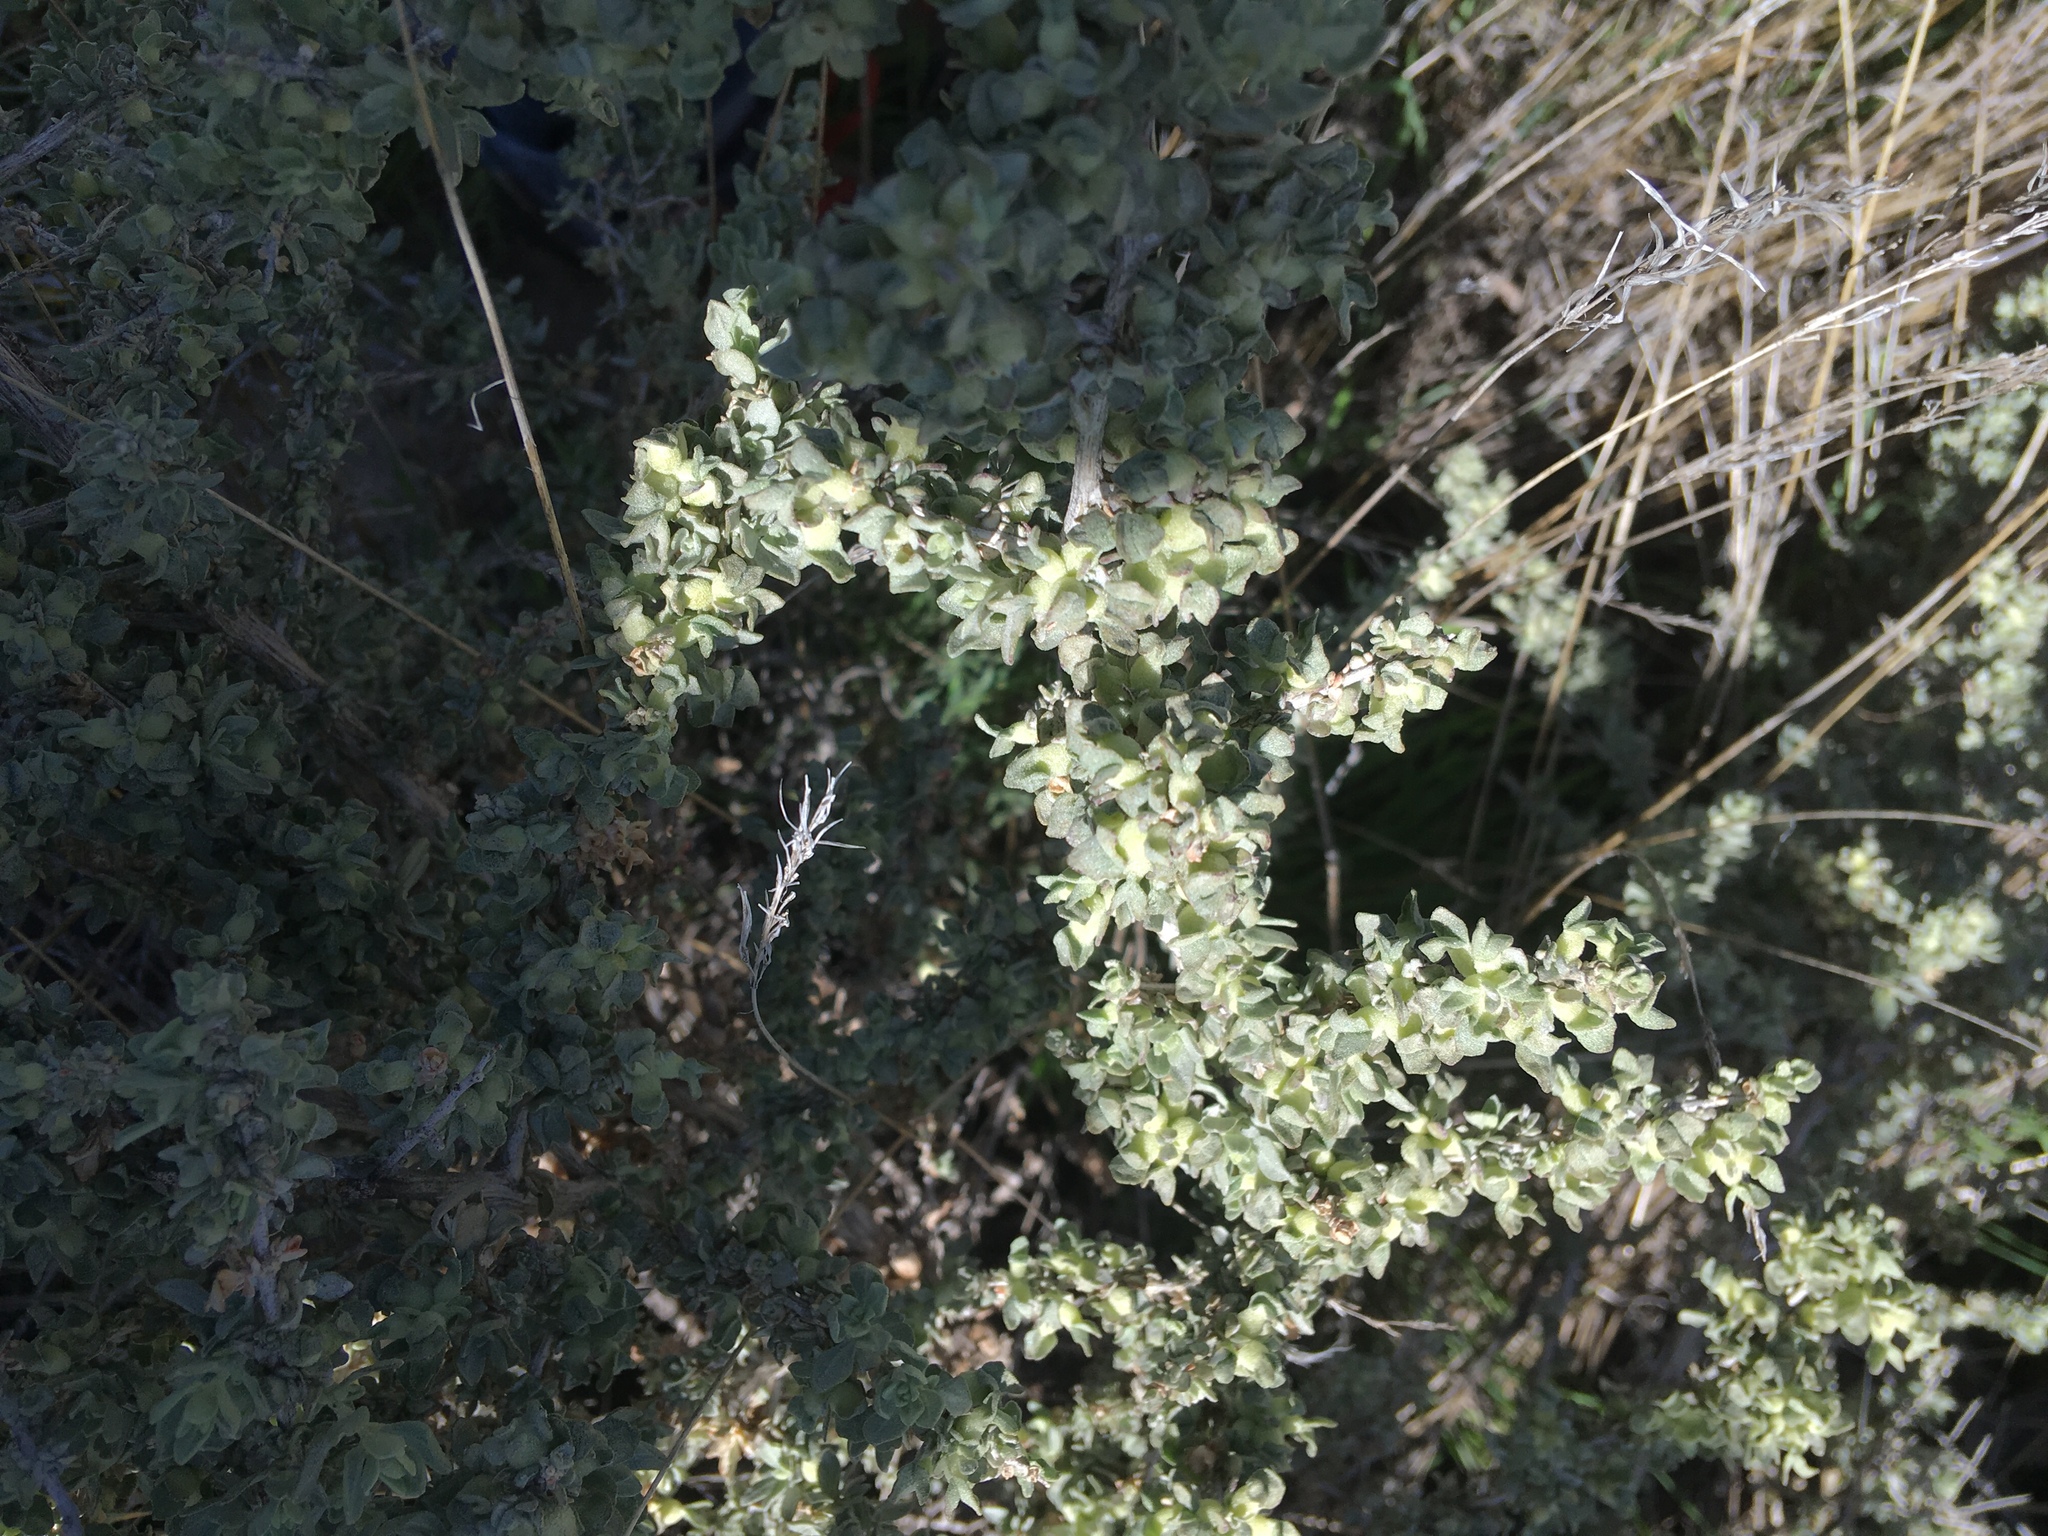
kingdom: Plantae
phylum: Tracheophyta
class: Magnoliopsida
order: Caryophyllales
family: Amaranthaceae
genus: Atriplex
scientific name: Atriplex spinifera
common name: Spiny saltbush
